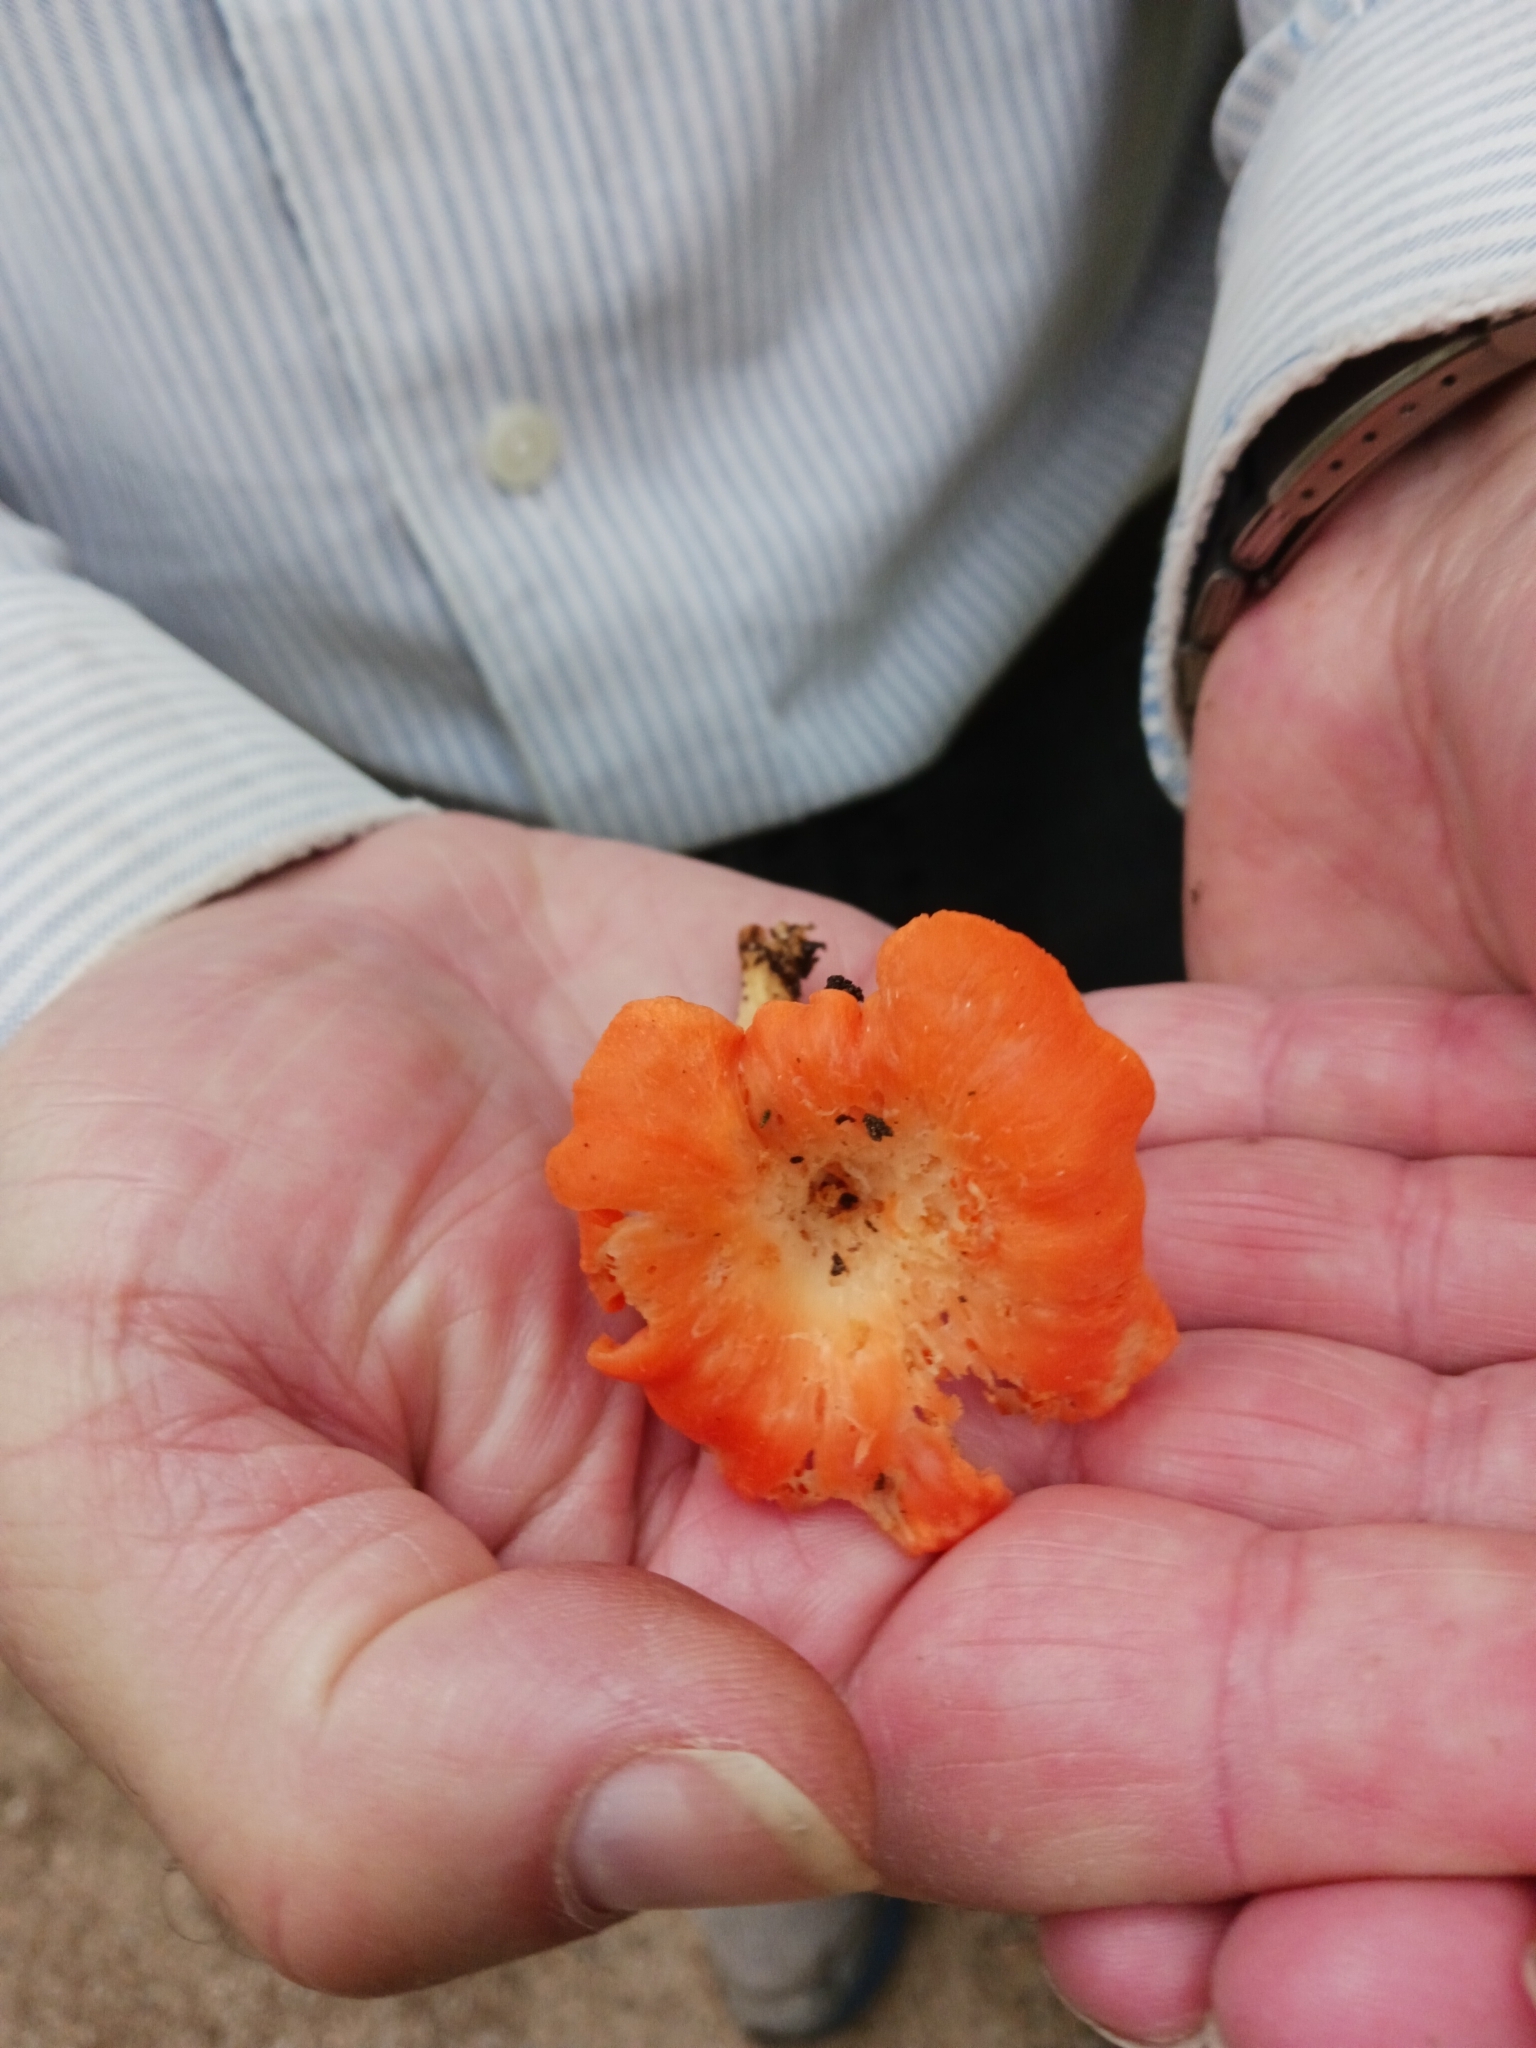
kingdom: Fungi
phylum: Basidiomycota
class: Agaricomycetes
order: Cantharellales
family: Hydnaceae
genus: Cantharellus
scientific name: Cantharellus cinnabarinus
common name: Cinnabar chanterelle
